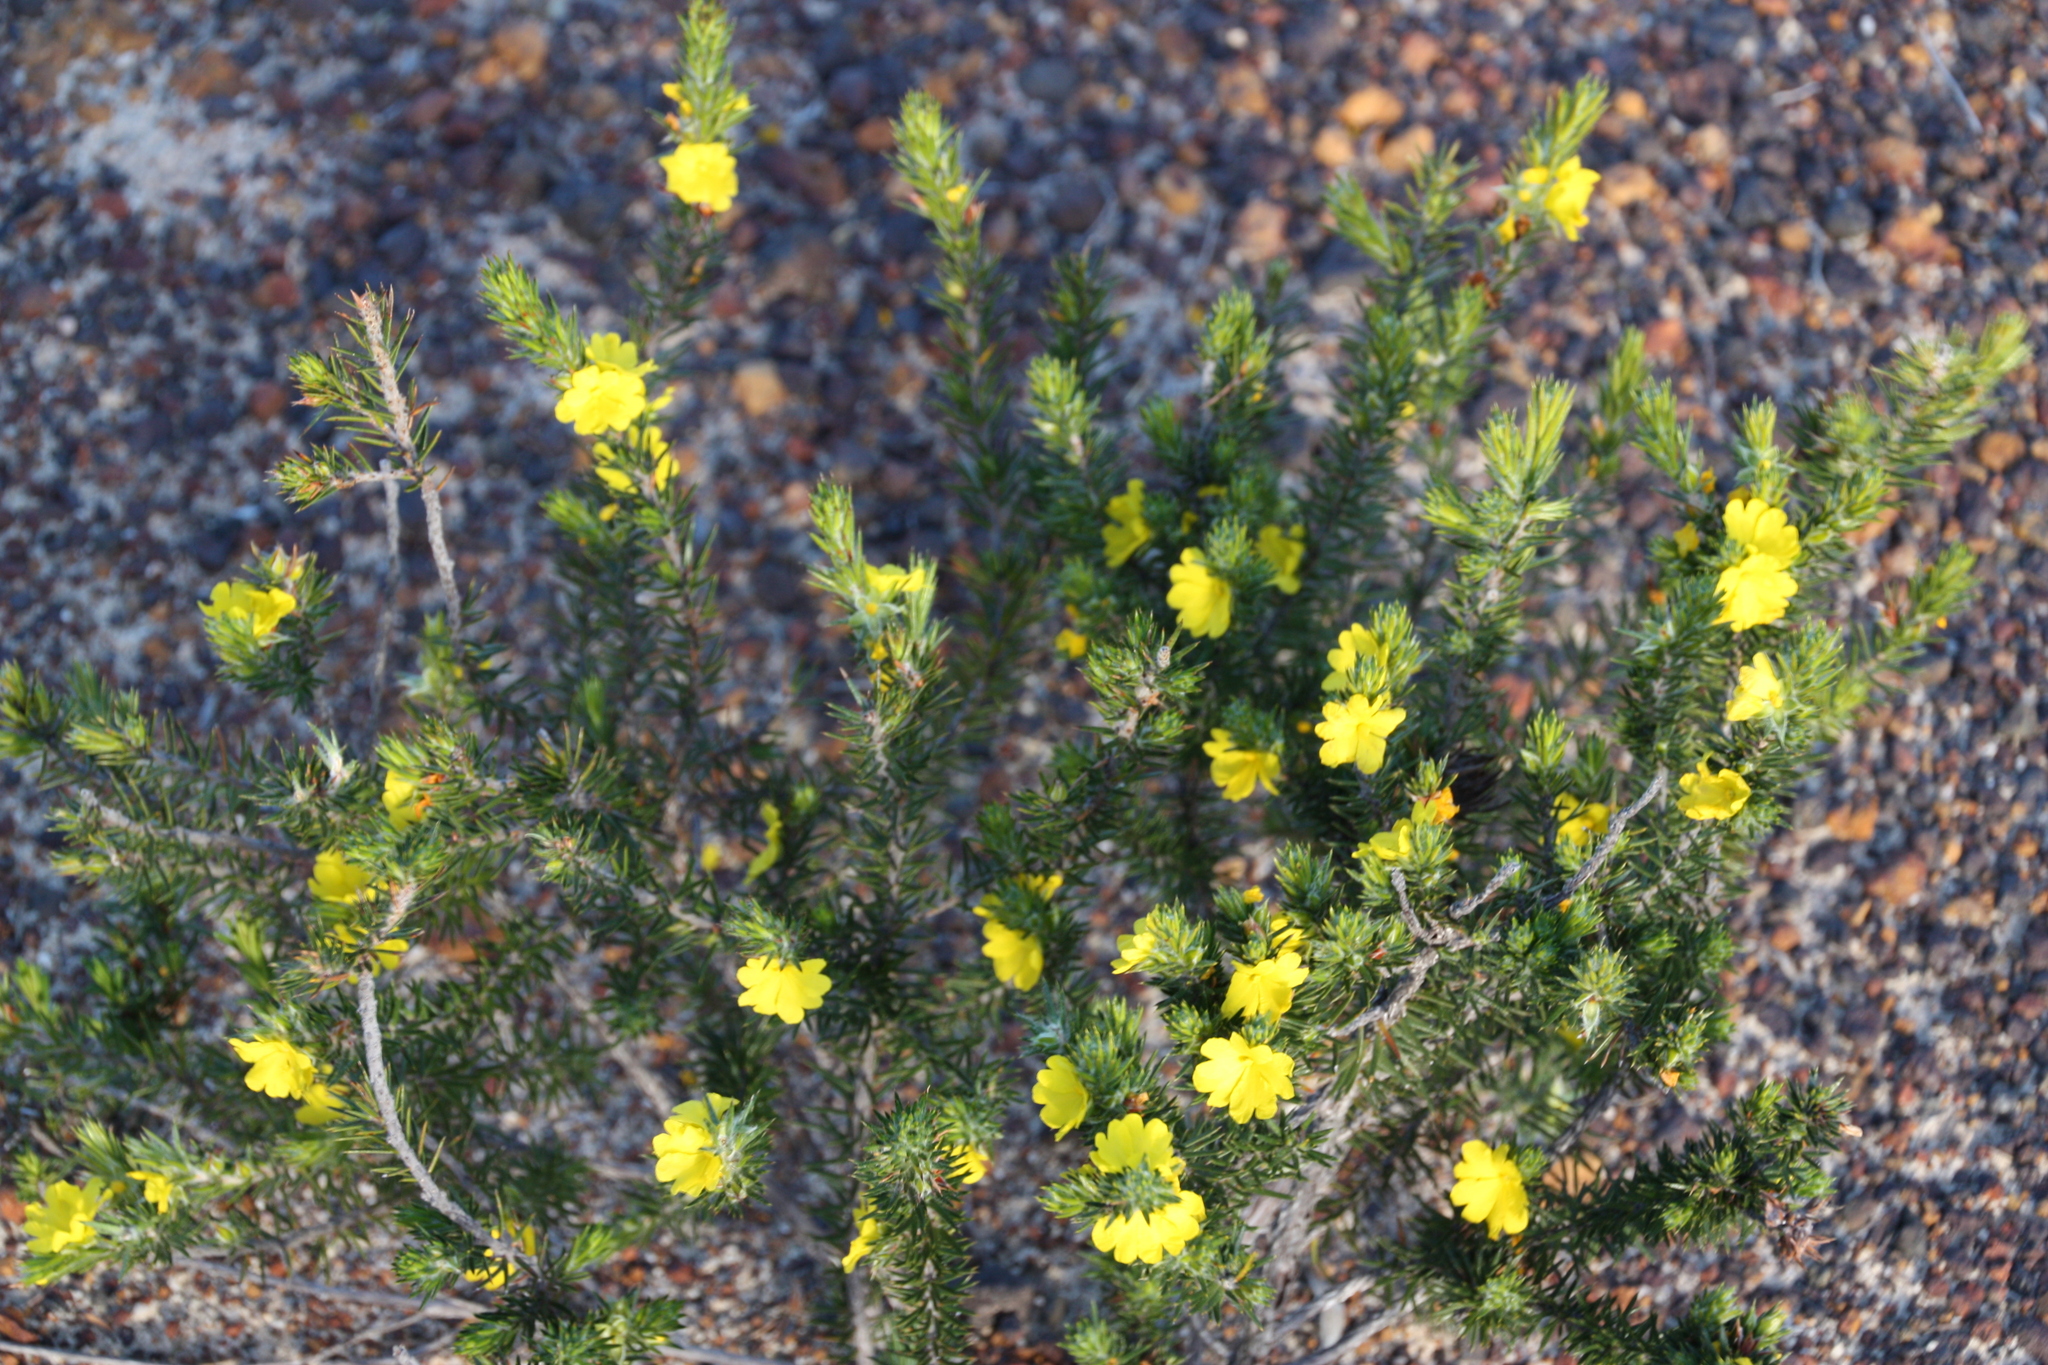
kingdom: Plantae
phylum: Tracheophyta
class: Magnoliopsida
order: Dilleniales
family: Dilleniaceae
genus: Hibbertia
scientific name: Hibbertia mucronata
